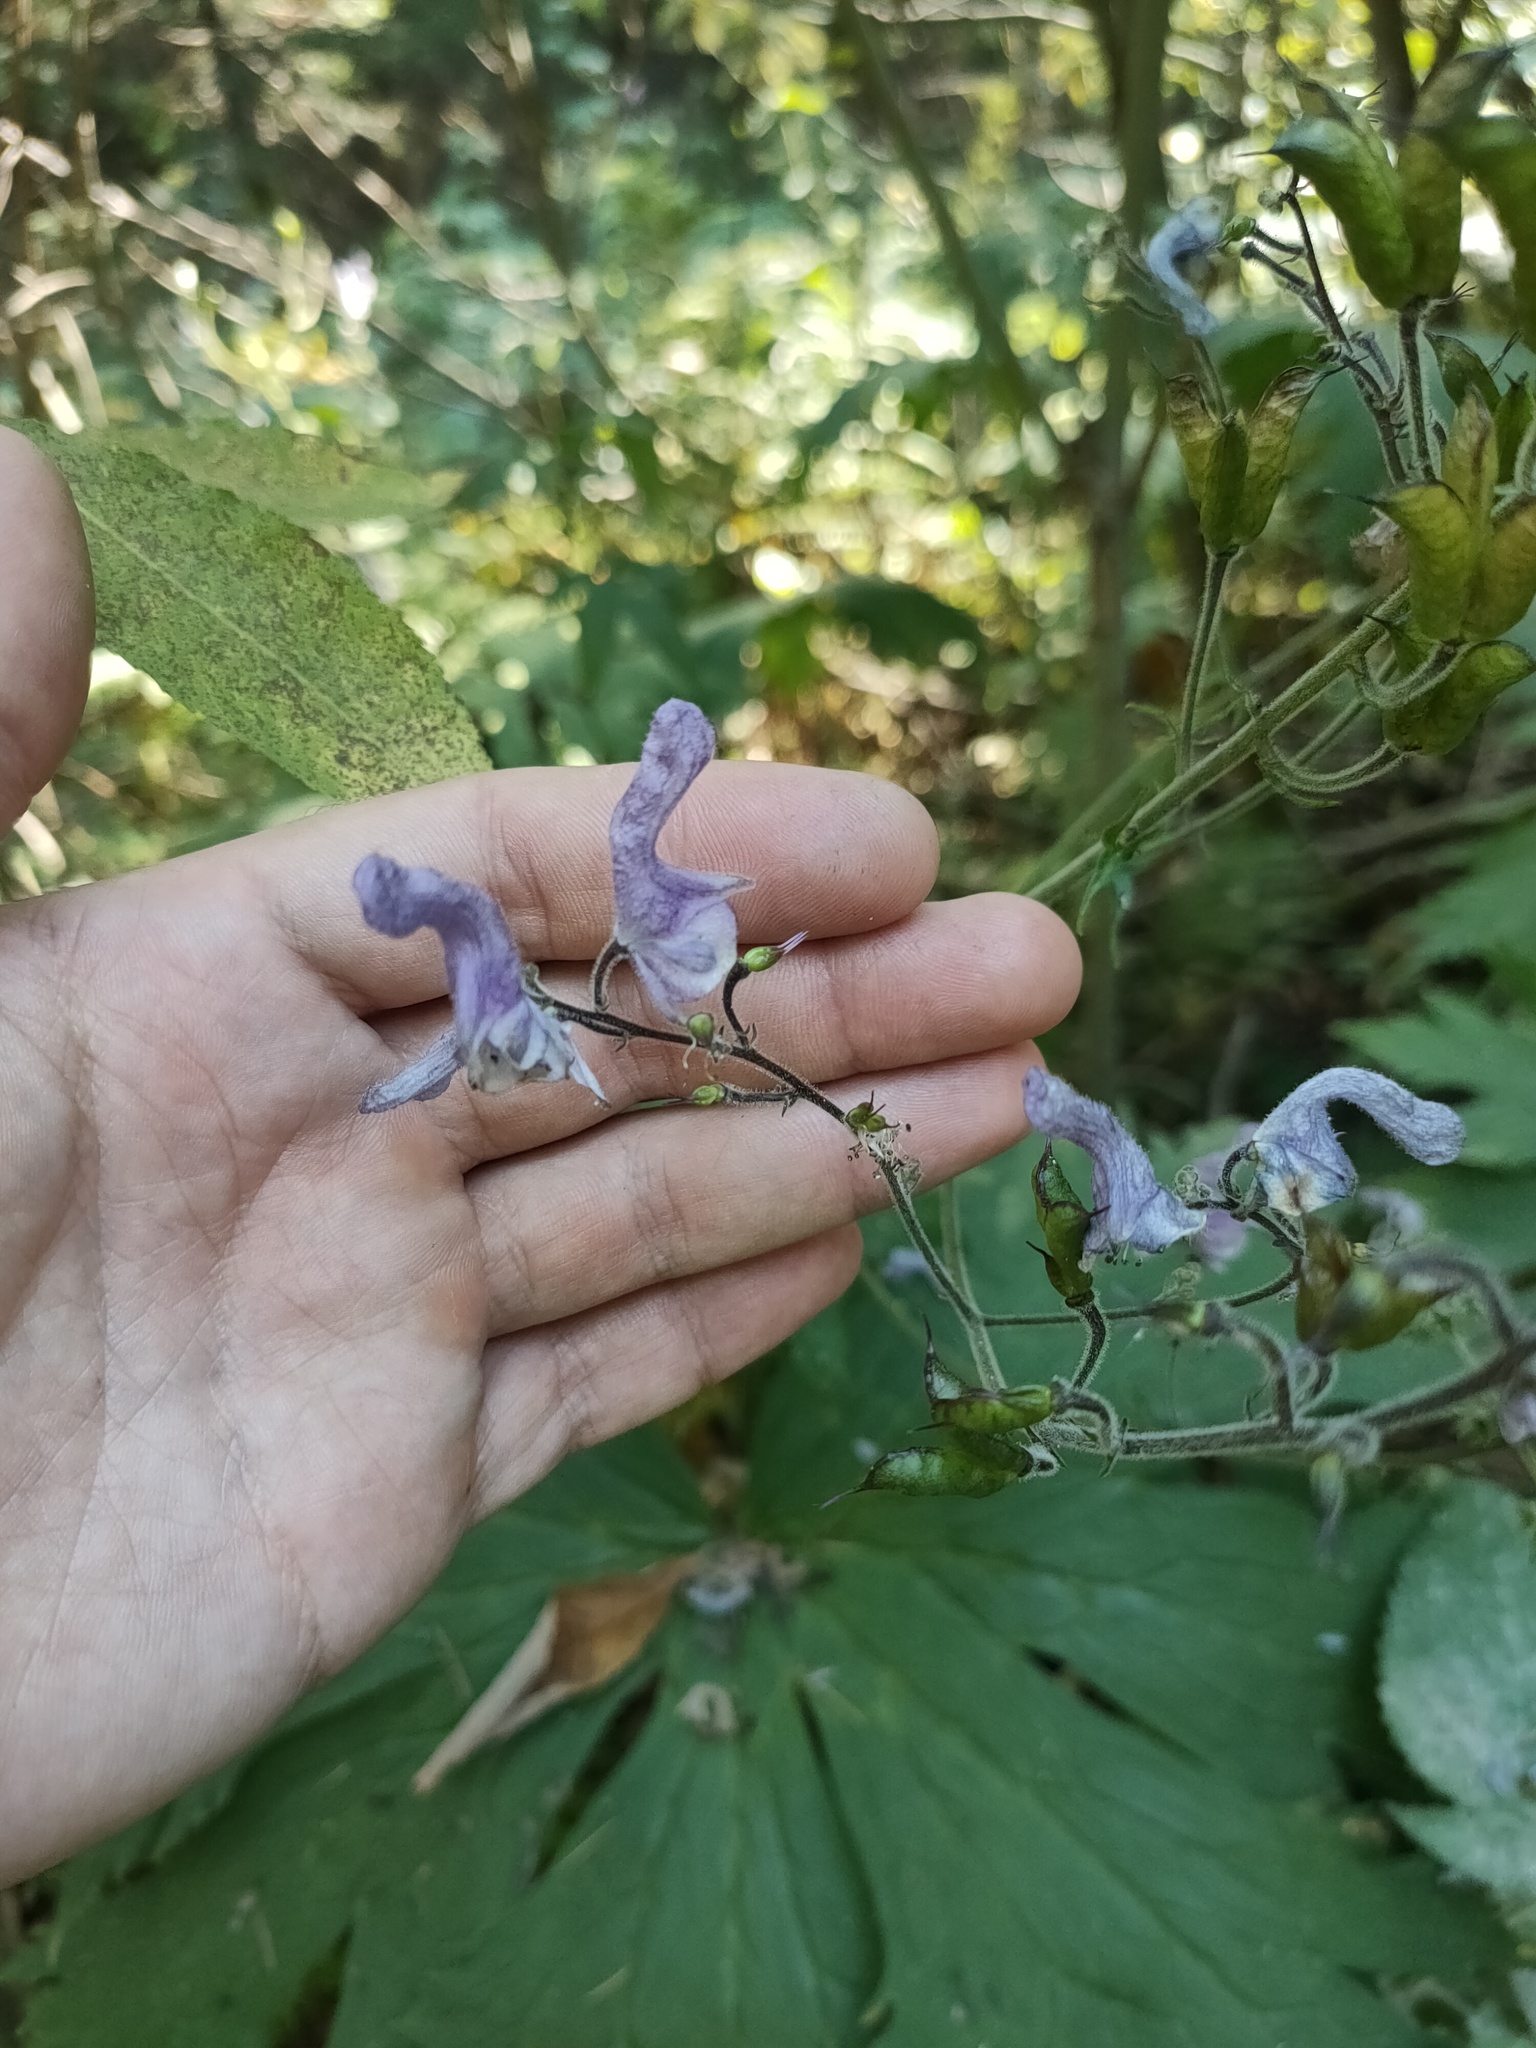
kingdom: Plantae
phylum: Tracheophyta
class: Magnoliopsida
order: Ranunculales
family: Ranunculaceae
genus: Aconitum
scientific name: Aconitum septentrionale
